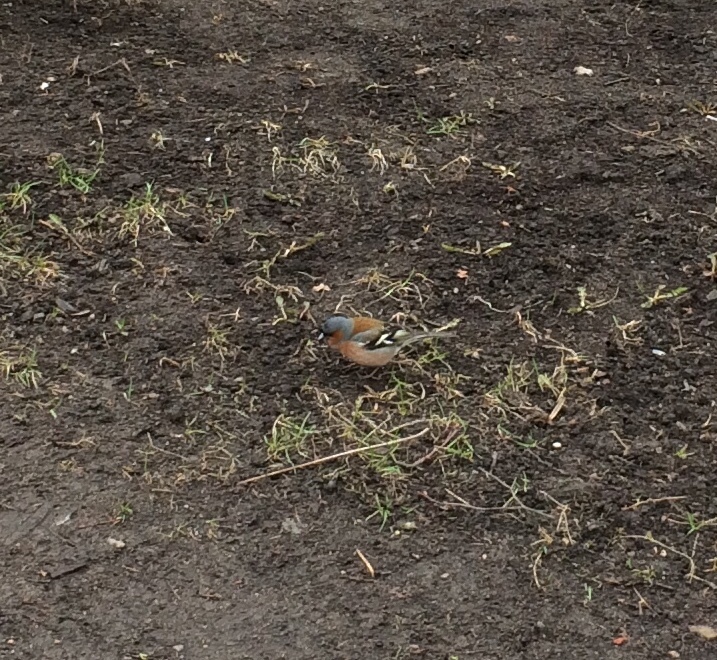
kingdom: Animalia
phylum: Chordata
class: Aves
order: Passeriformes
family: Fringillidae
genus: Fringilla
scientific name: Fringilla coelebs
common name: Common chaffinch
